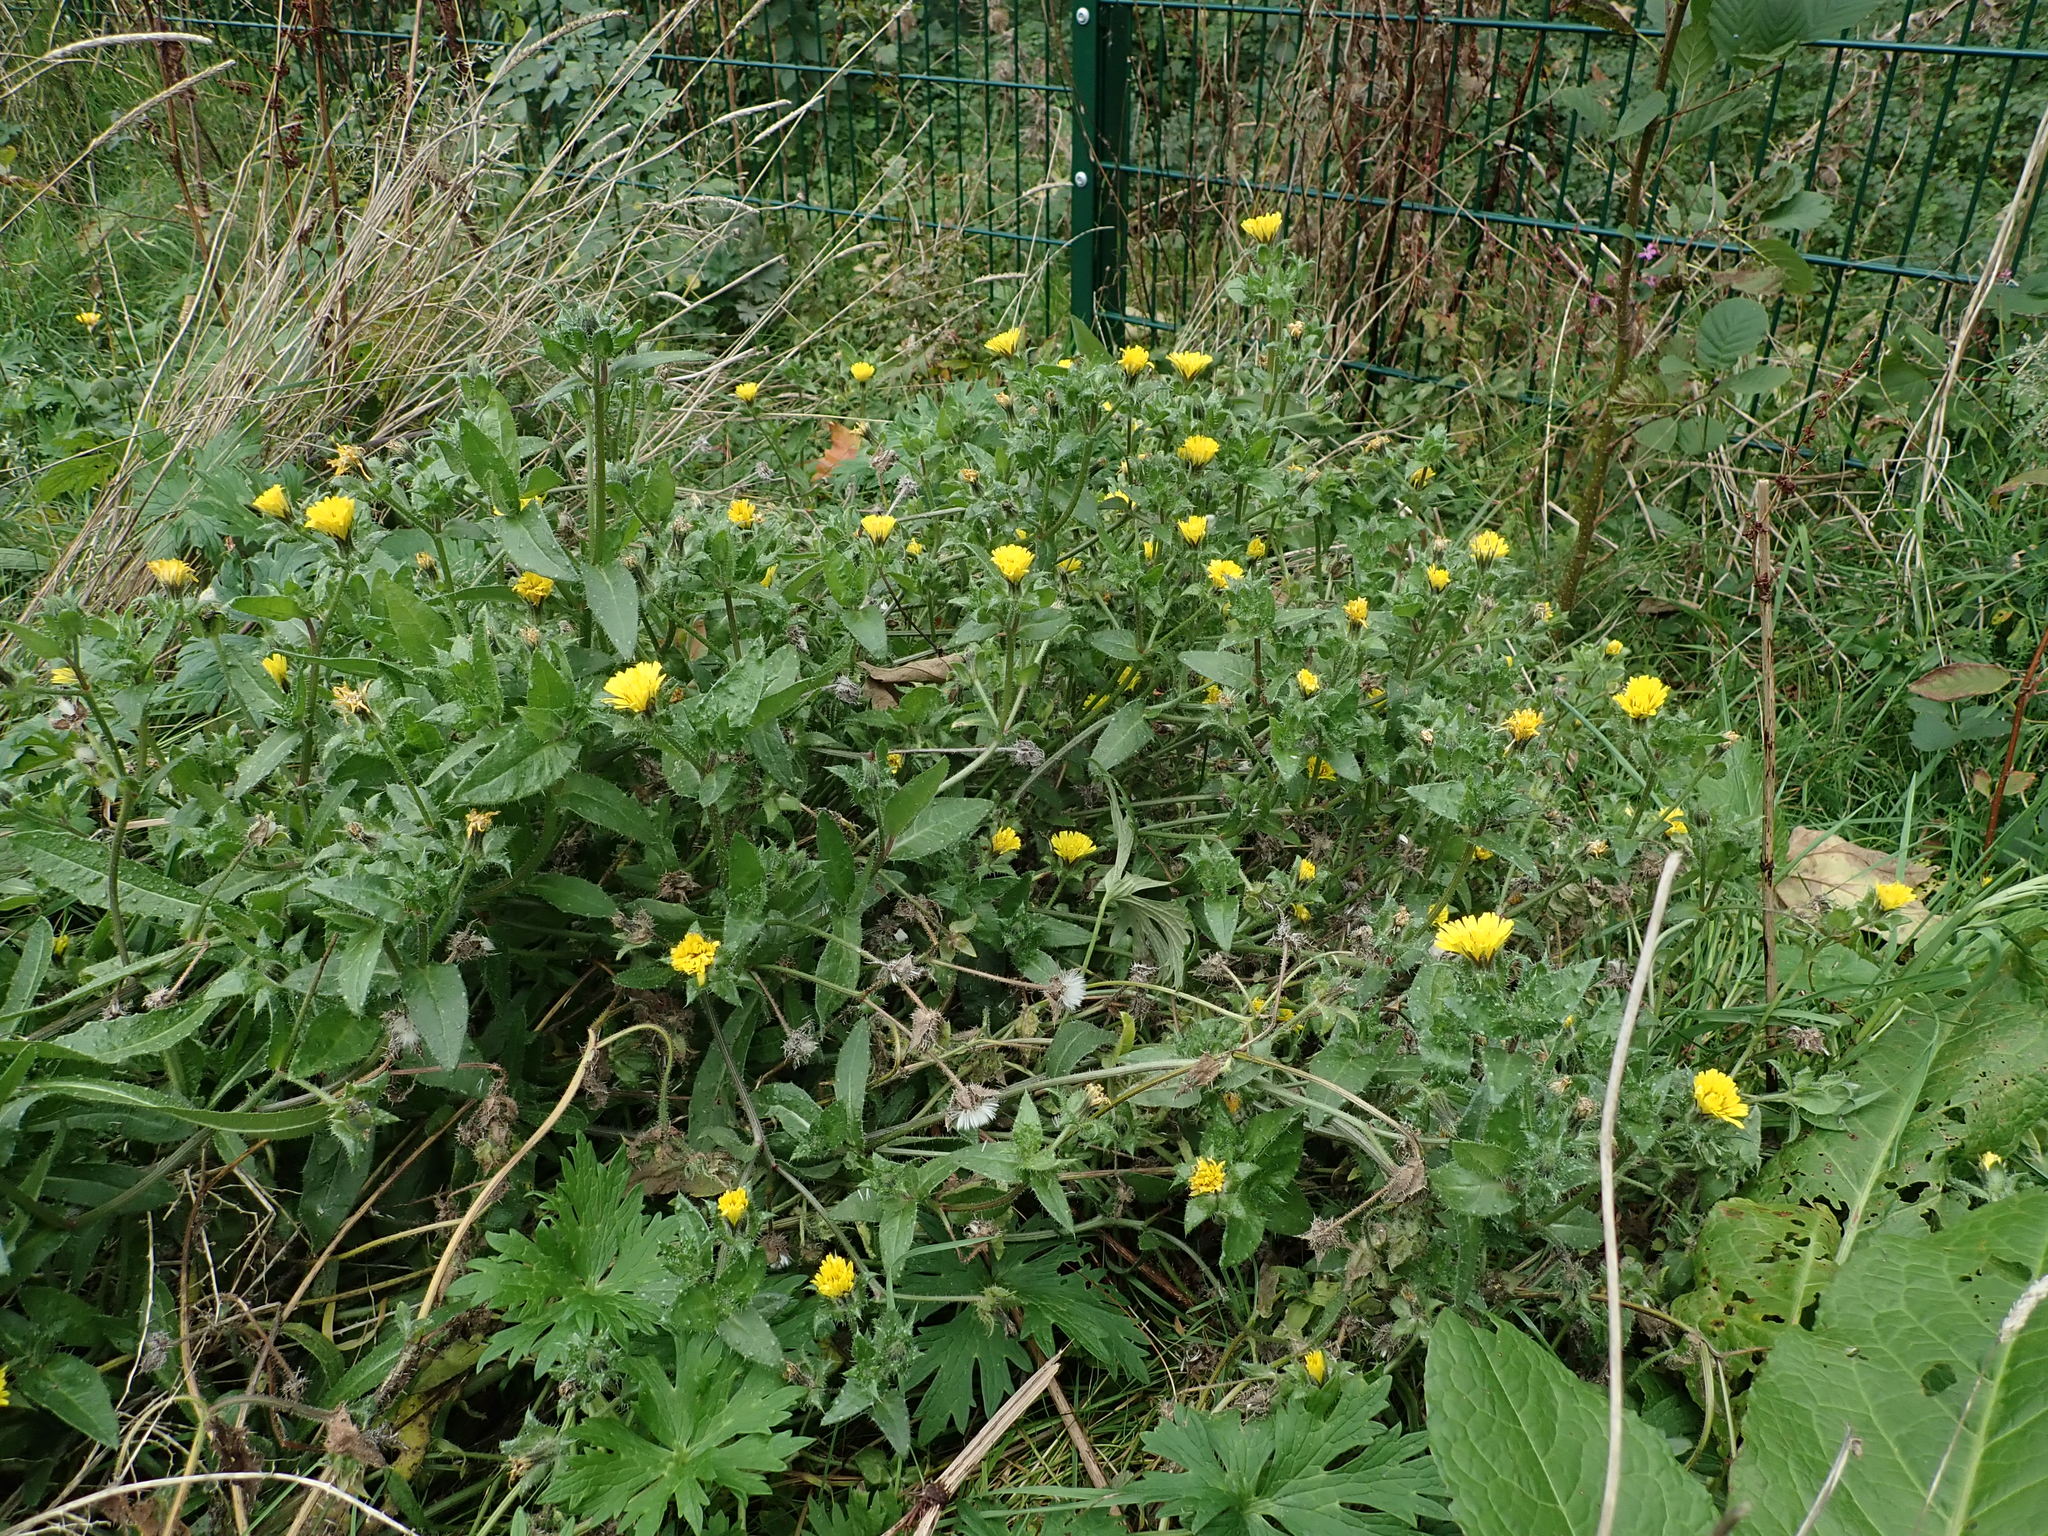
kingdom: Plantae
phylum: Tracheophyta
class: Magnoliopsida
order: Asterales
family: Asteraceae
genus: Helminthotheca
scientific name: Helminthotheca echioides
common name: Ox-tongue
